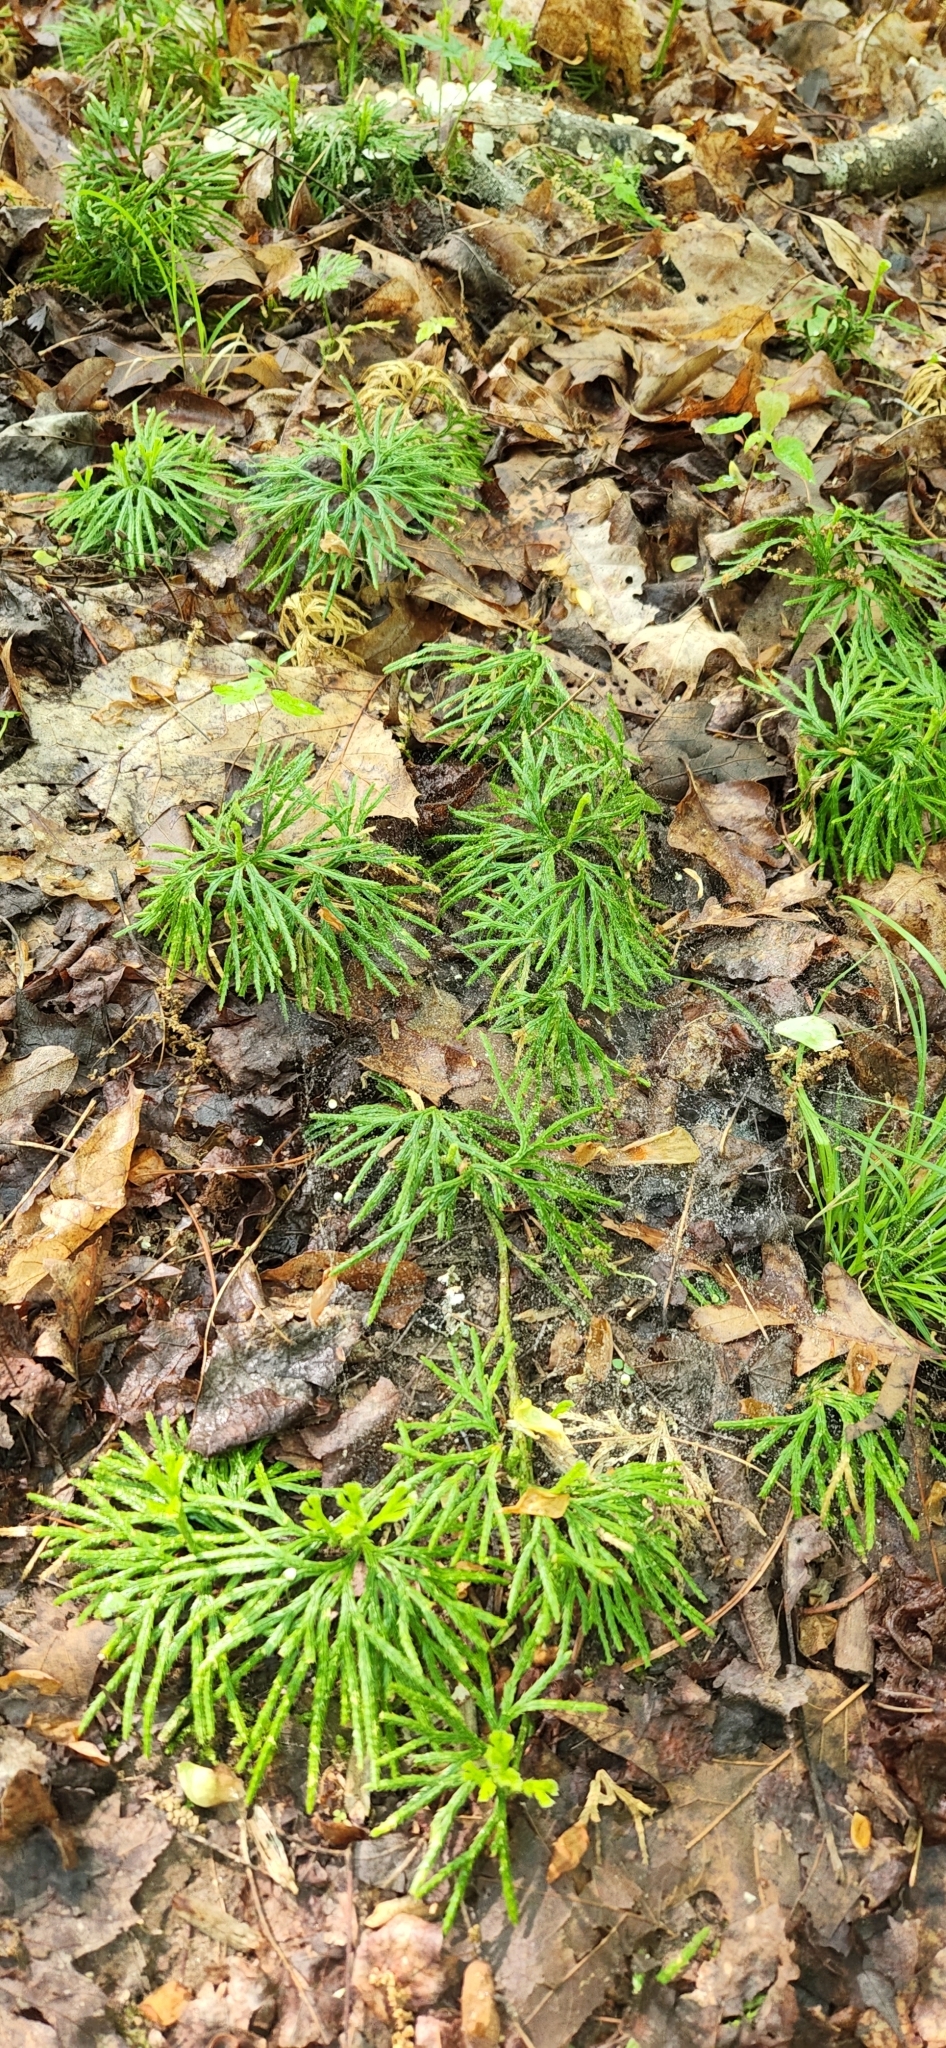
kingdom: Plantae
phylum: Tracheophyta
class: Lycopodiopsida
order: Lycopodiales
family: Lycopodiaceae
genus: Diphasiastrum
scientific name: Diphasiastrum digitatum
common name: Southern running-pine
